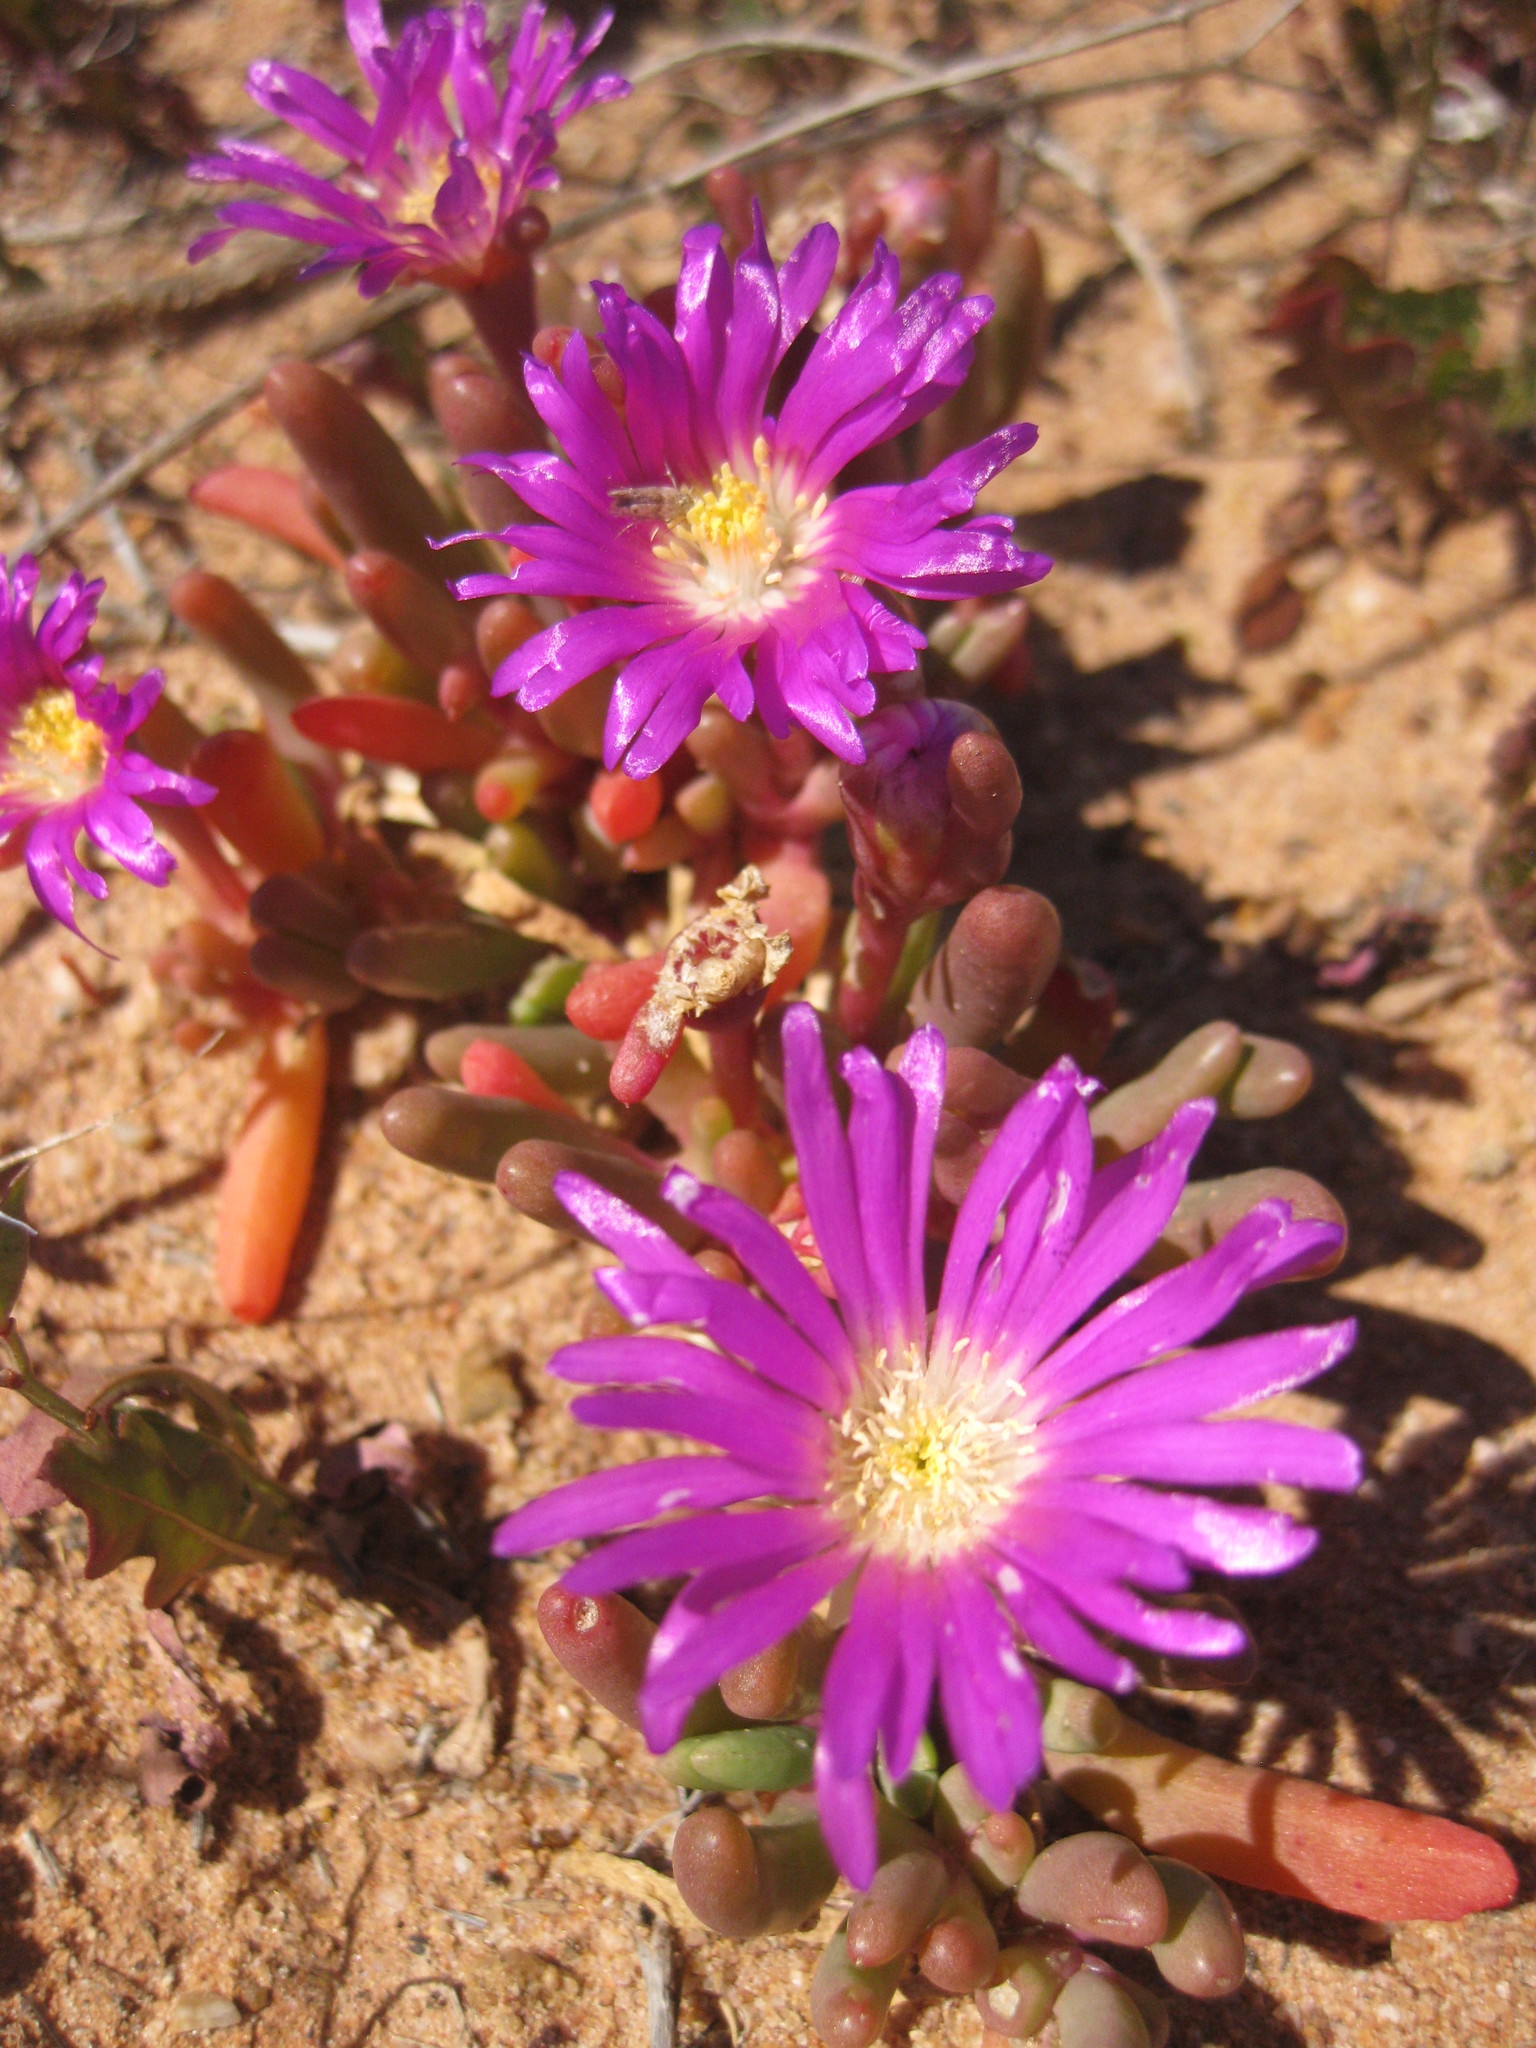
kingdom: Plantae
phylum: Tracheophyta
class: Magnoliopsida
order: Caryophyllales
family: Aizoaceae
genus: Disphyma
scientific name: Disphyma clavellatum
